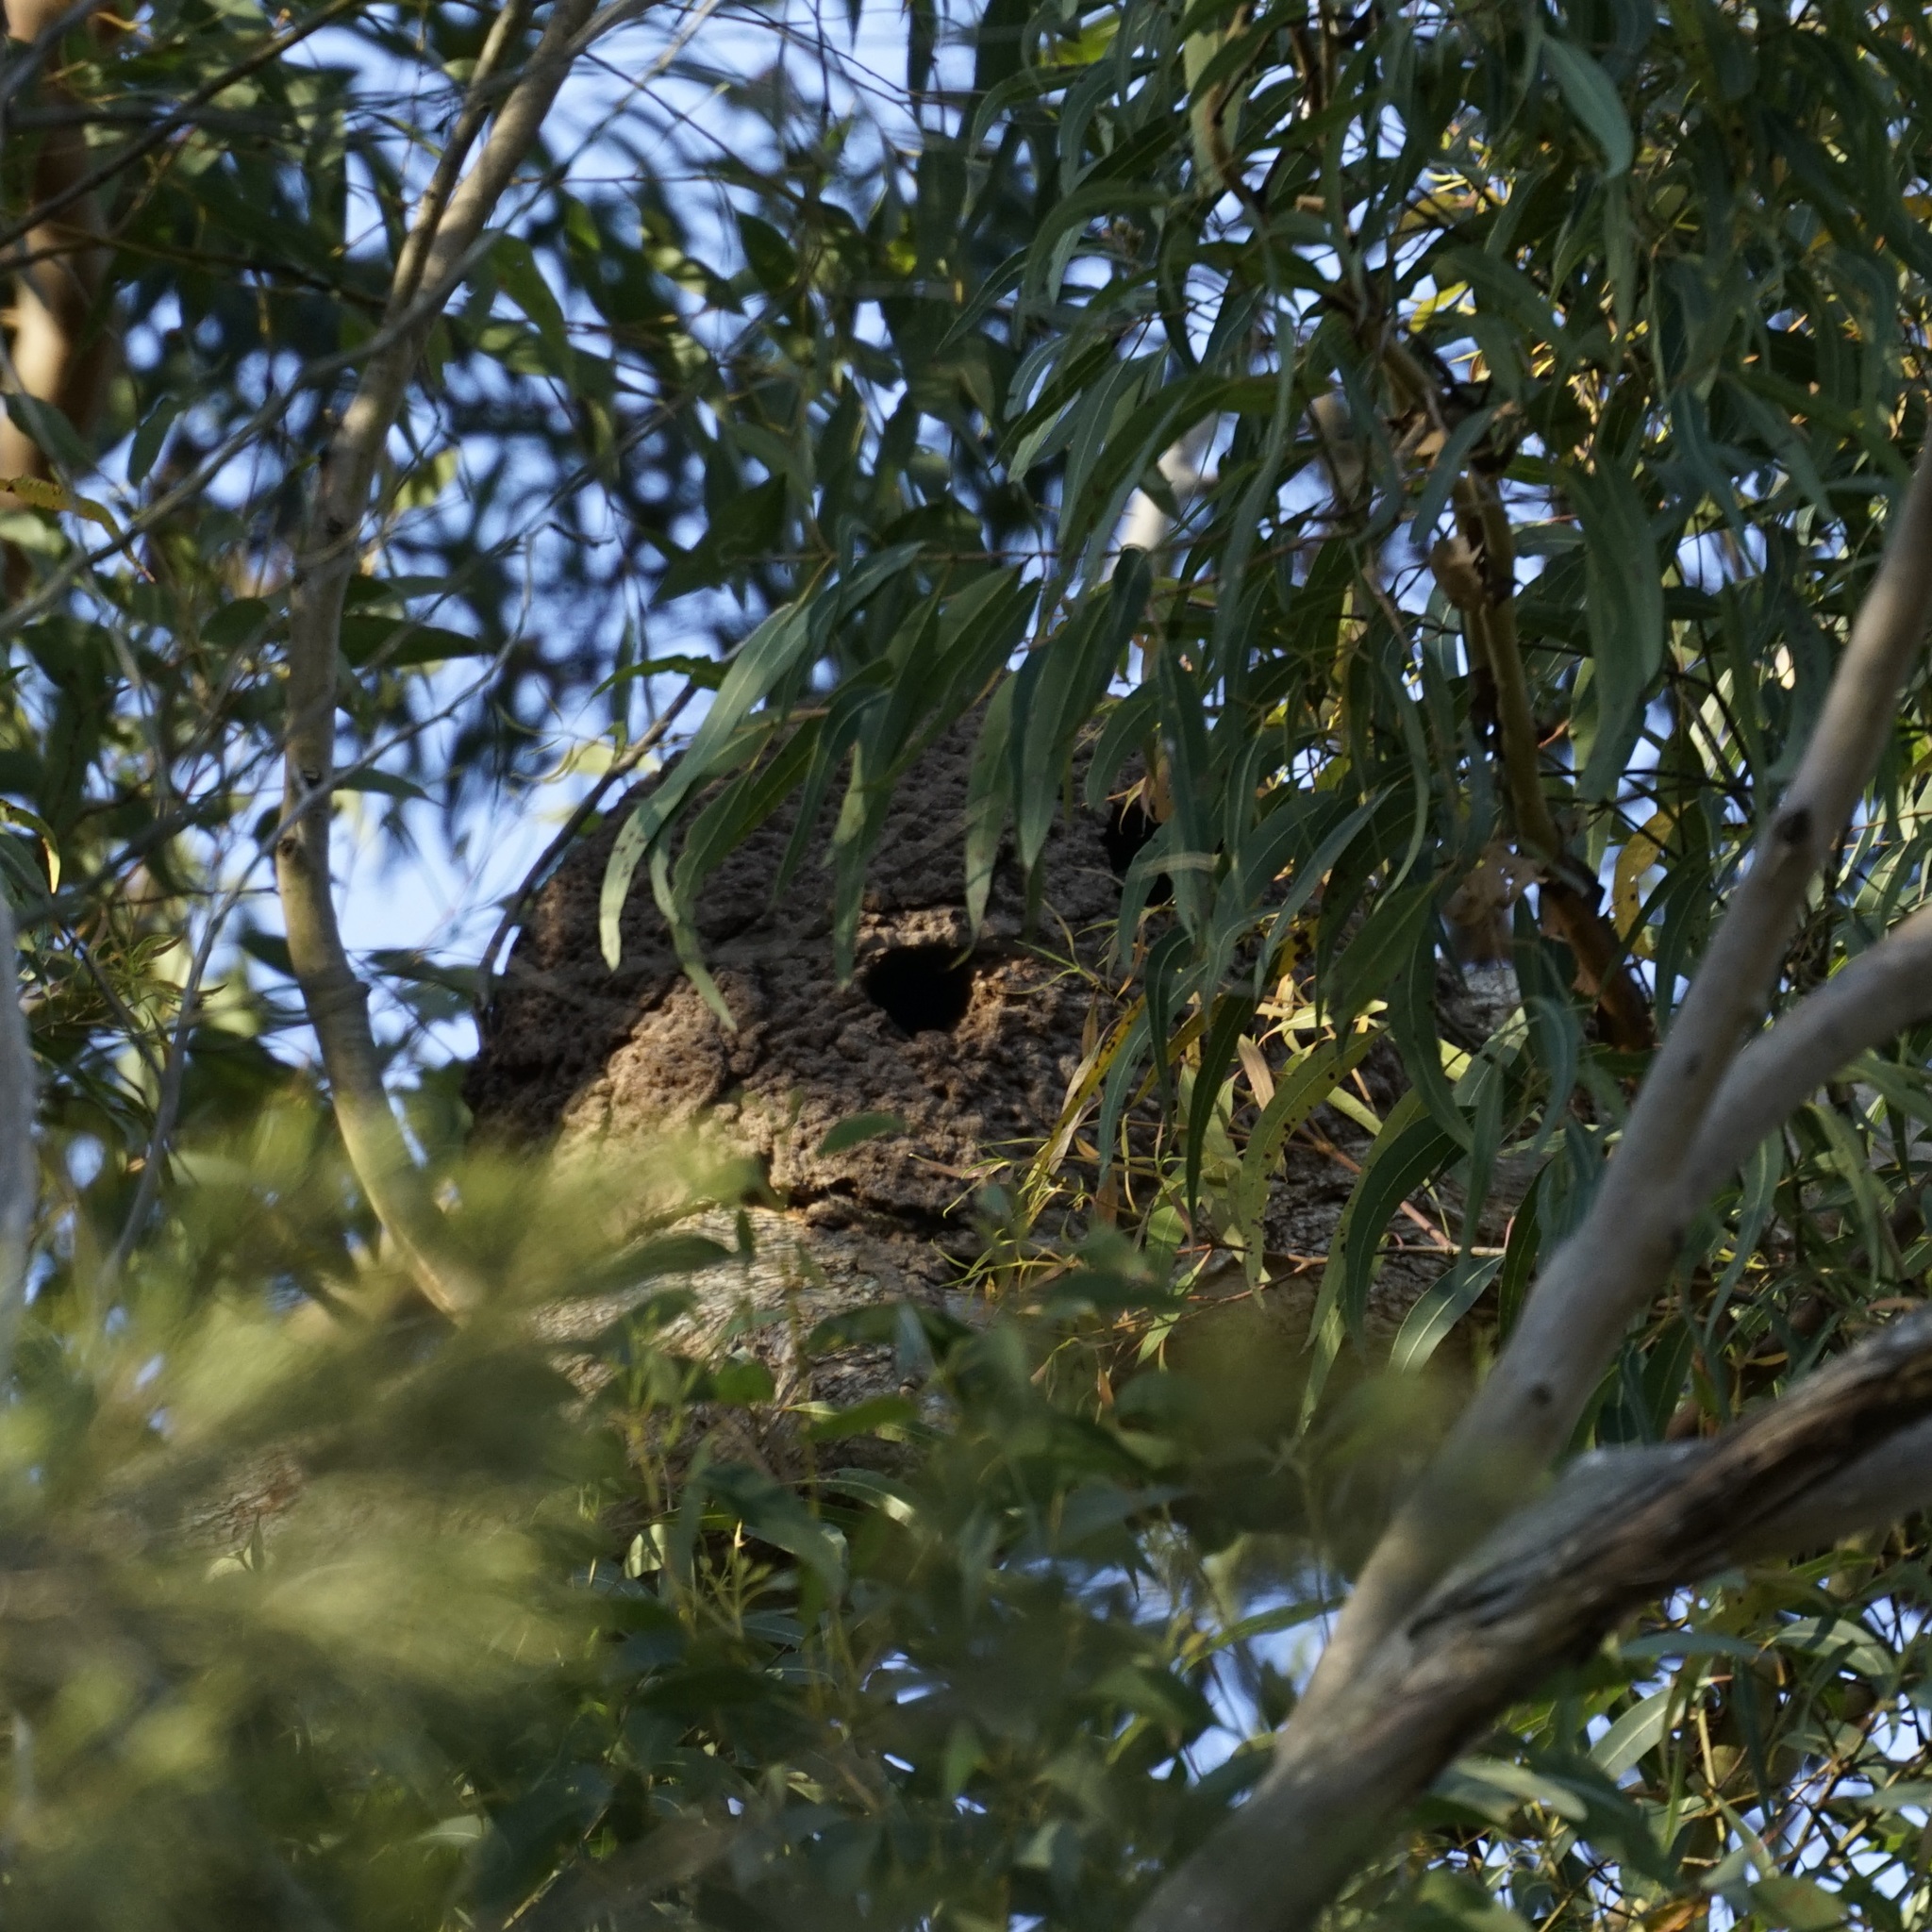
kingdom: Animalia
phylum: Chordata
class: Aves
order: Coraciiformes
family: Alcedinidae
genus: Todiramphus
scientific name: Todiramphus sanctus
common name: Sacred kingfisher
